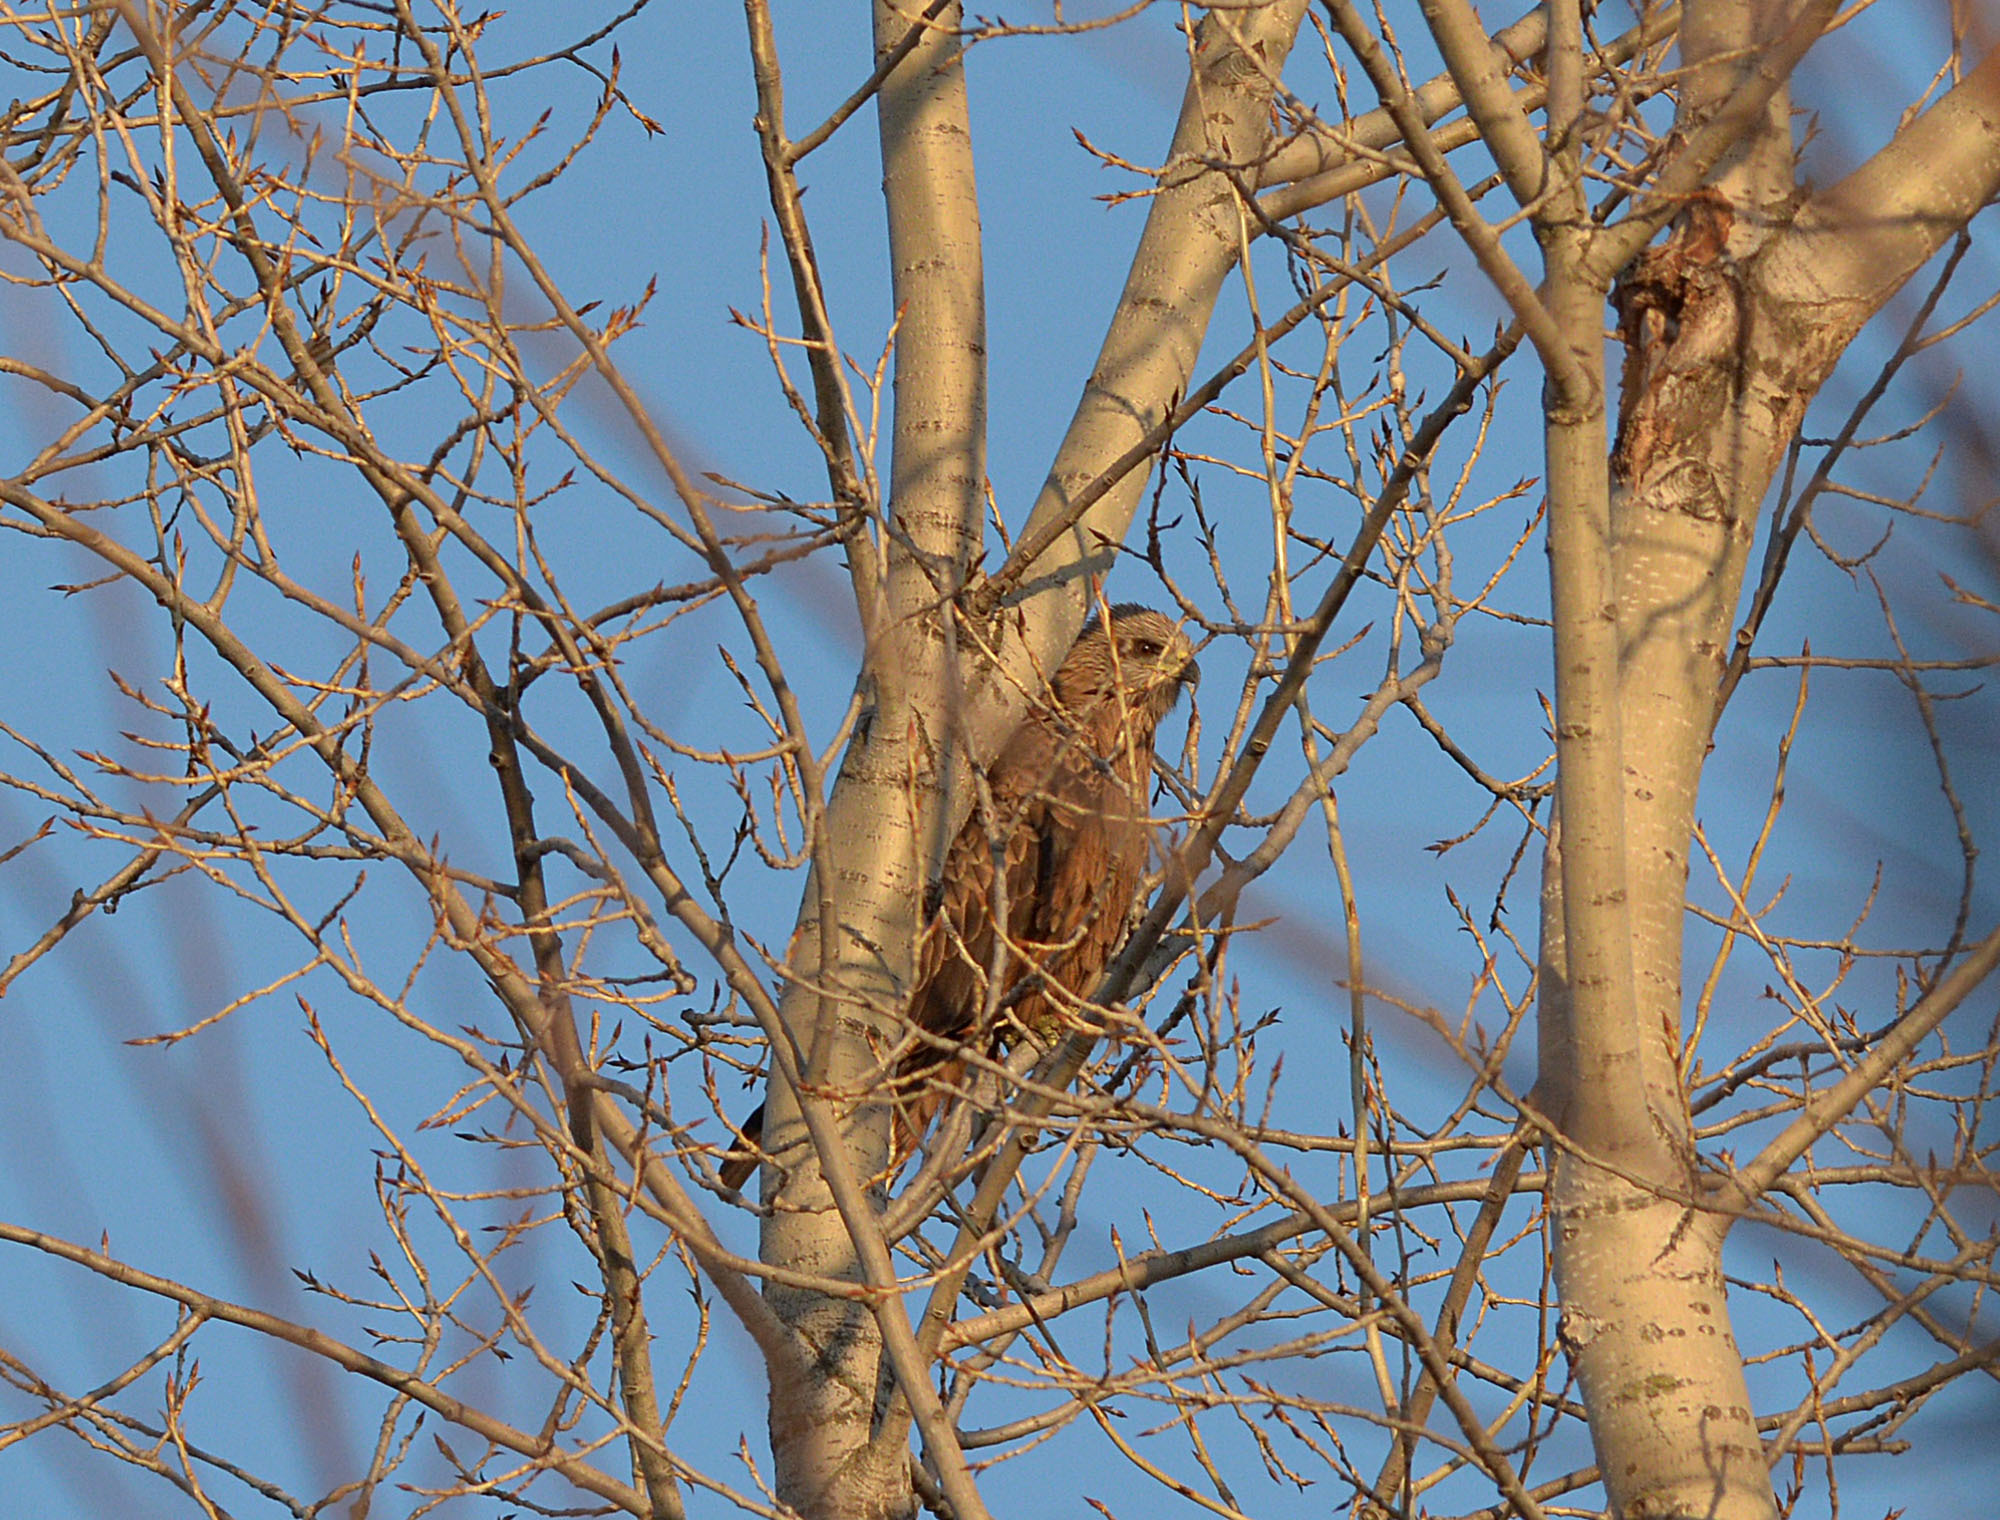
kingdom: Animalia
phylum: Chordata
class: Aves
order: Accipitriformes
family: Accipitridae
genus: Milvus
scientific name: Milvus migrans
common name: Black kite
